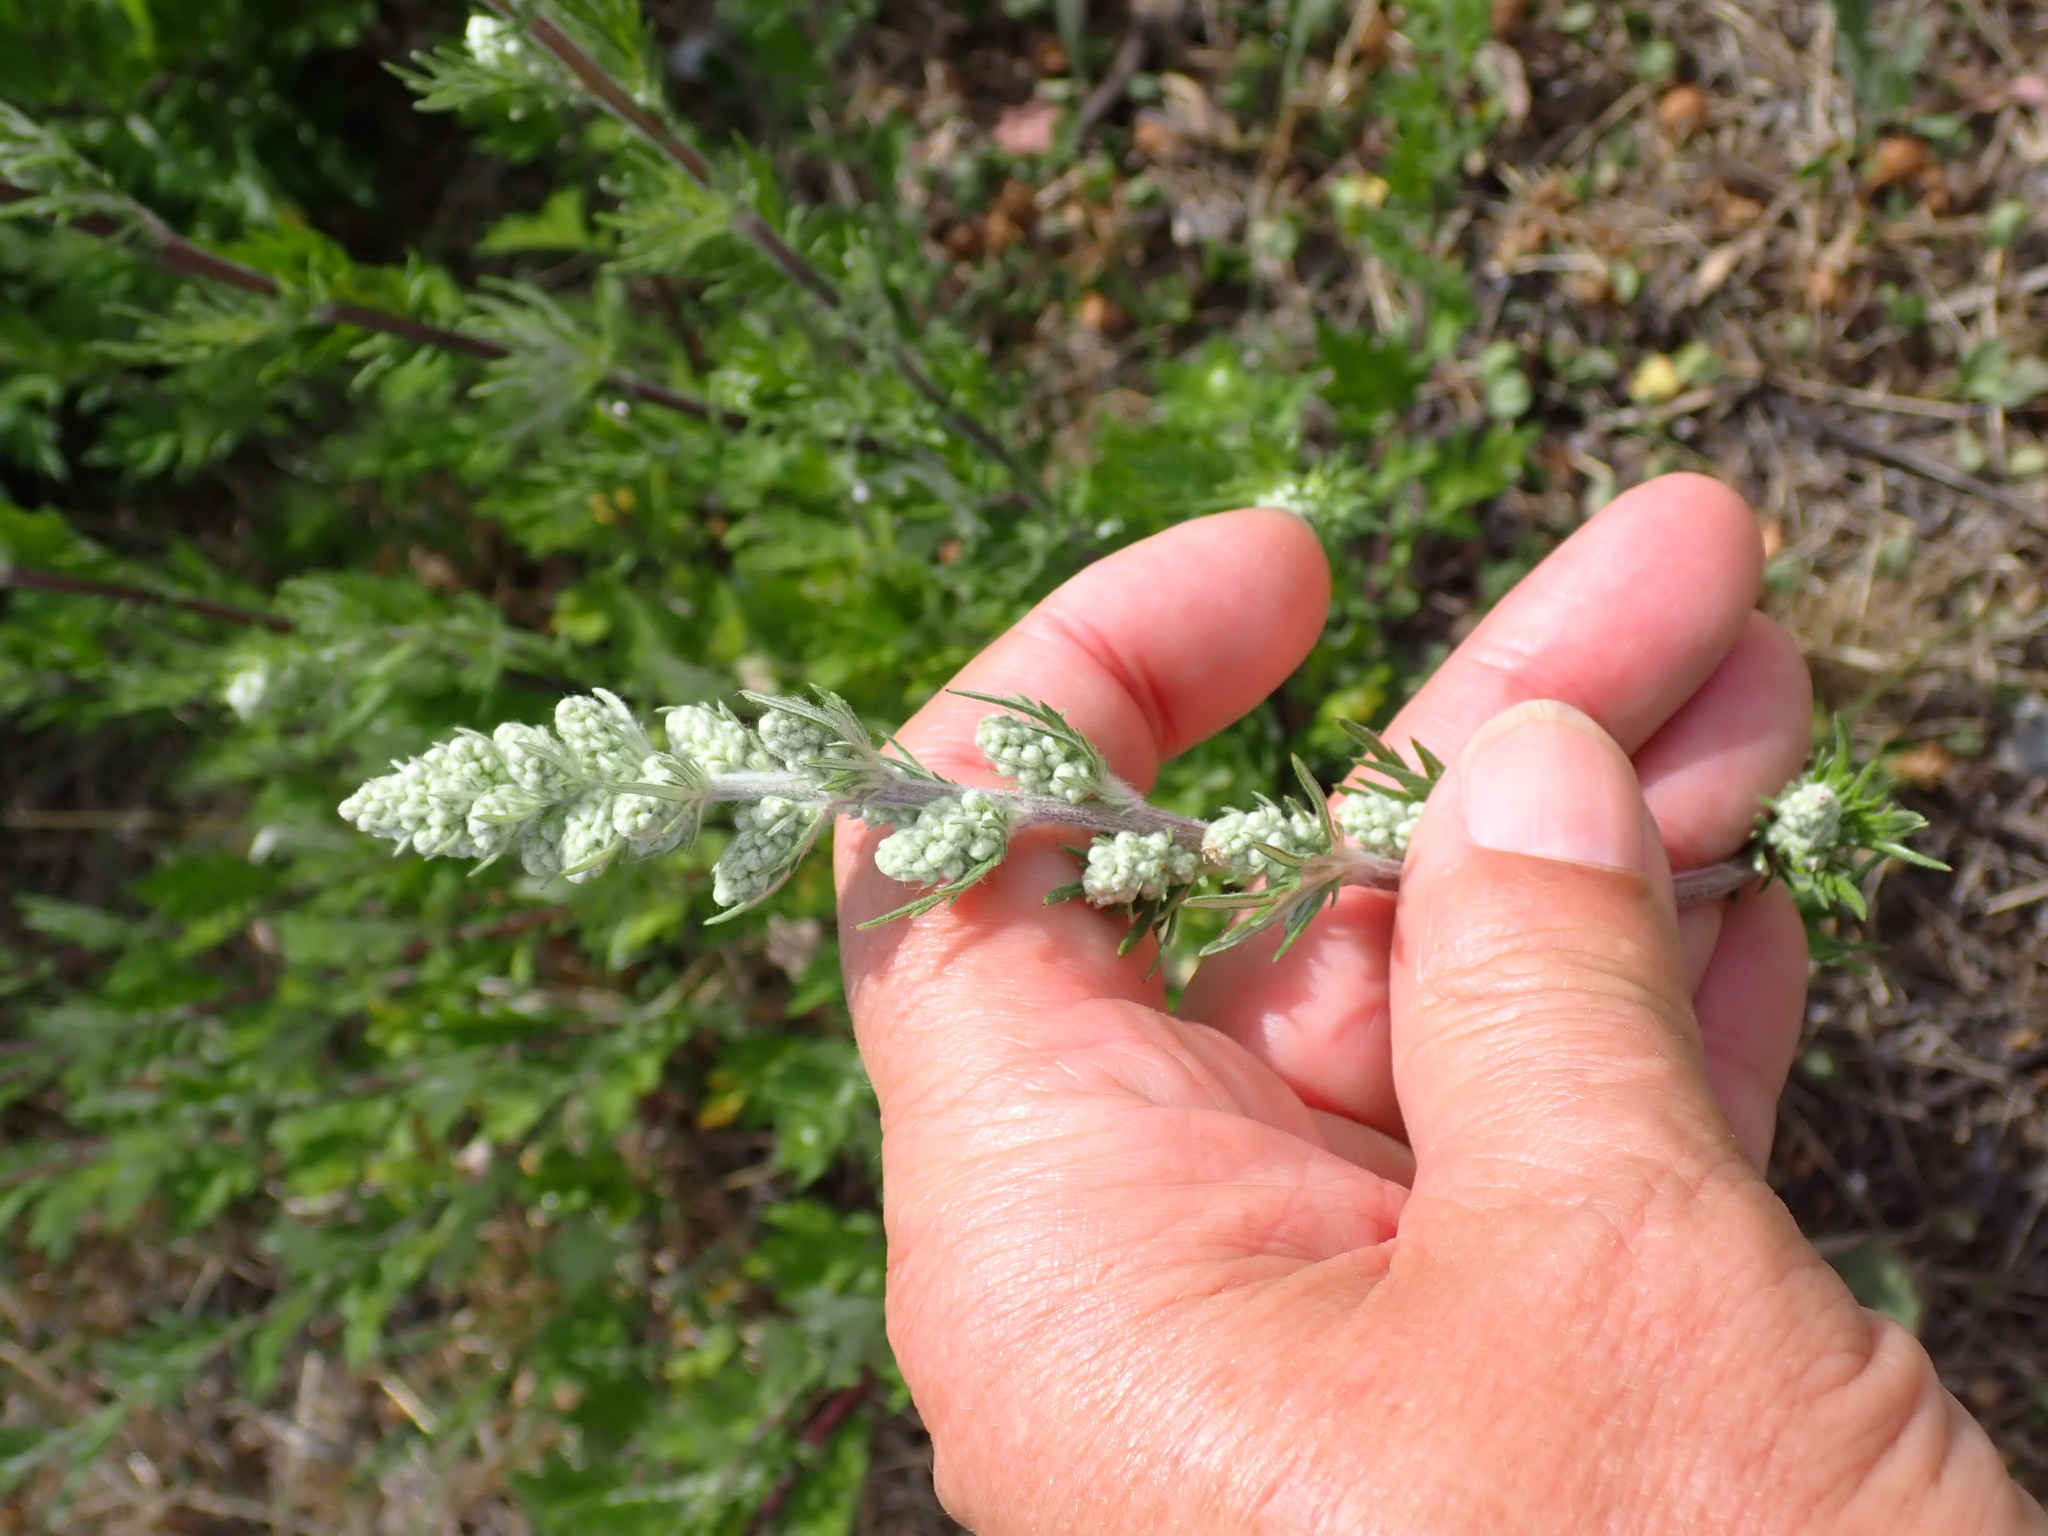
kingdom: Plantae
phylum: Tracheophyta
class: Magnoliopsida
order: Asterales
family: Asteraceae
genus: Artemisia
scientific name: Artemisia vulgaris
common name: Mugwort
